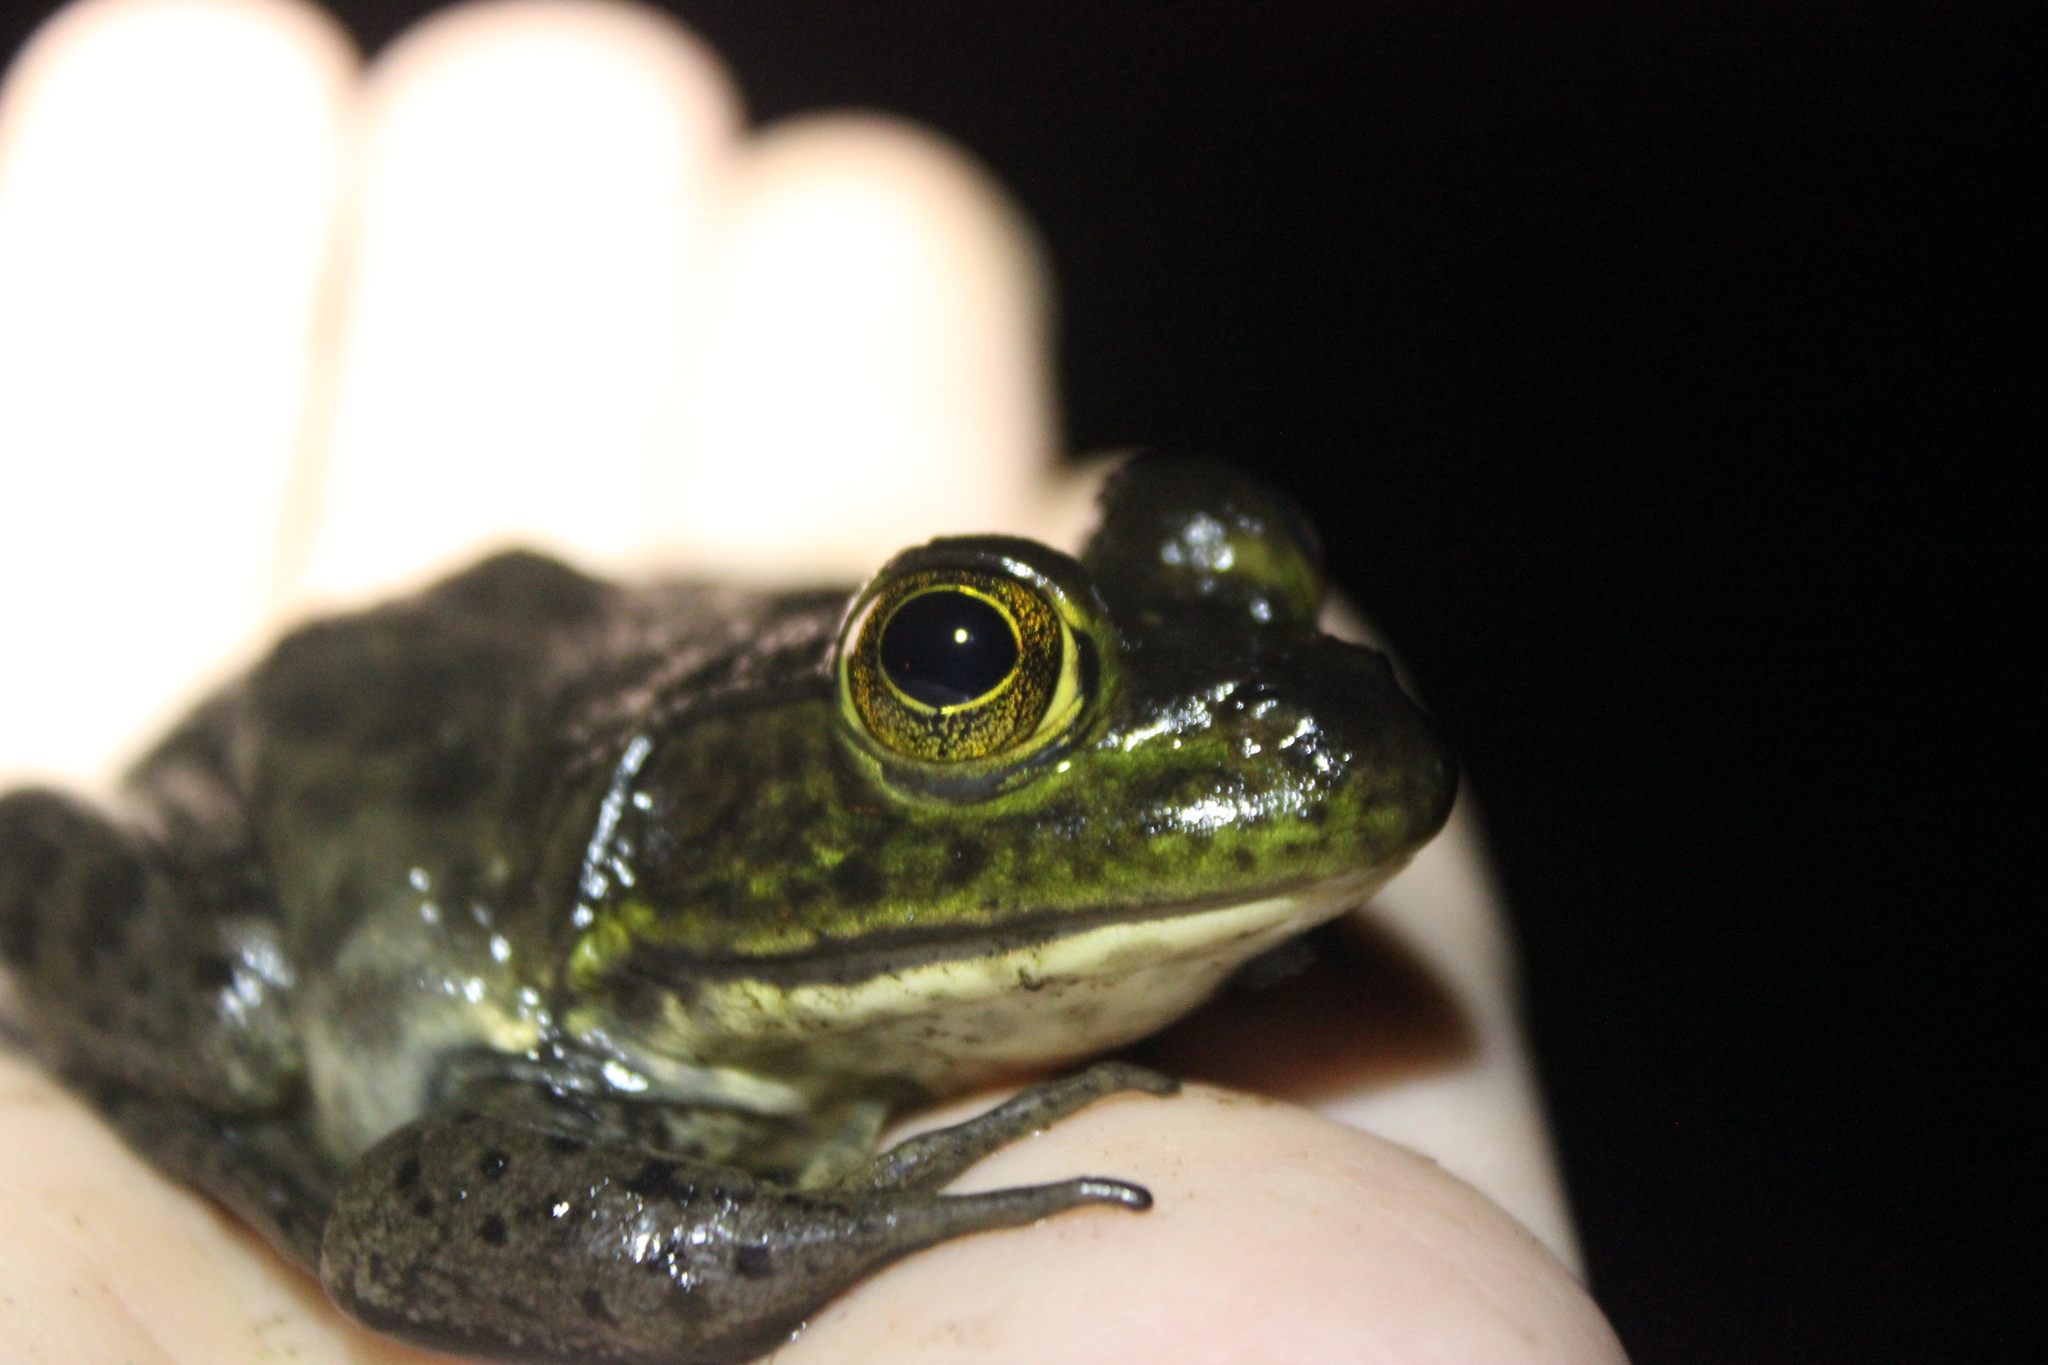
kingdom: Animalia
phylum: Chordata
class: Amphibia
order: Anura
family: Ranidae
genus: Lithobates
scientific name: Lithobates catesbeianus
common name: American bullfrog
